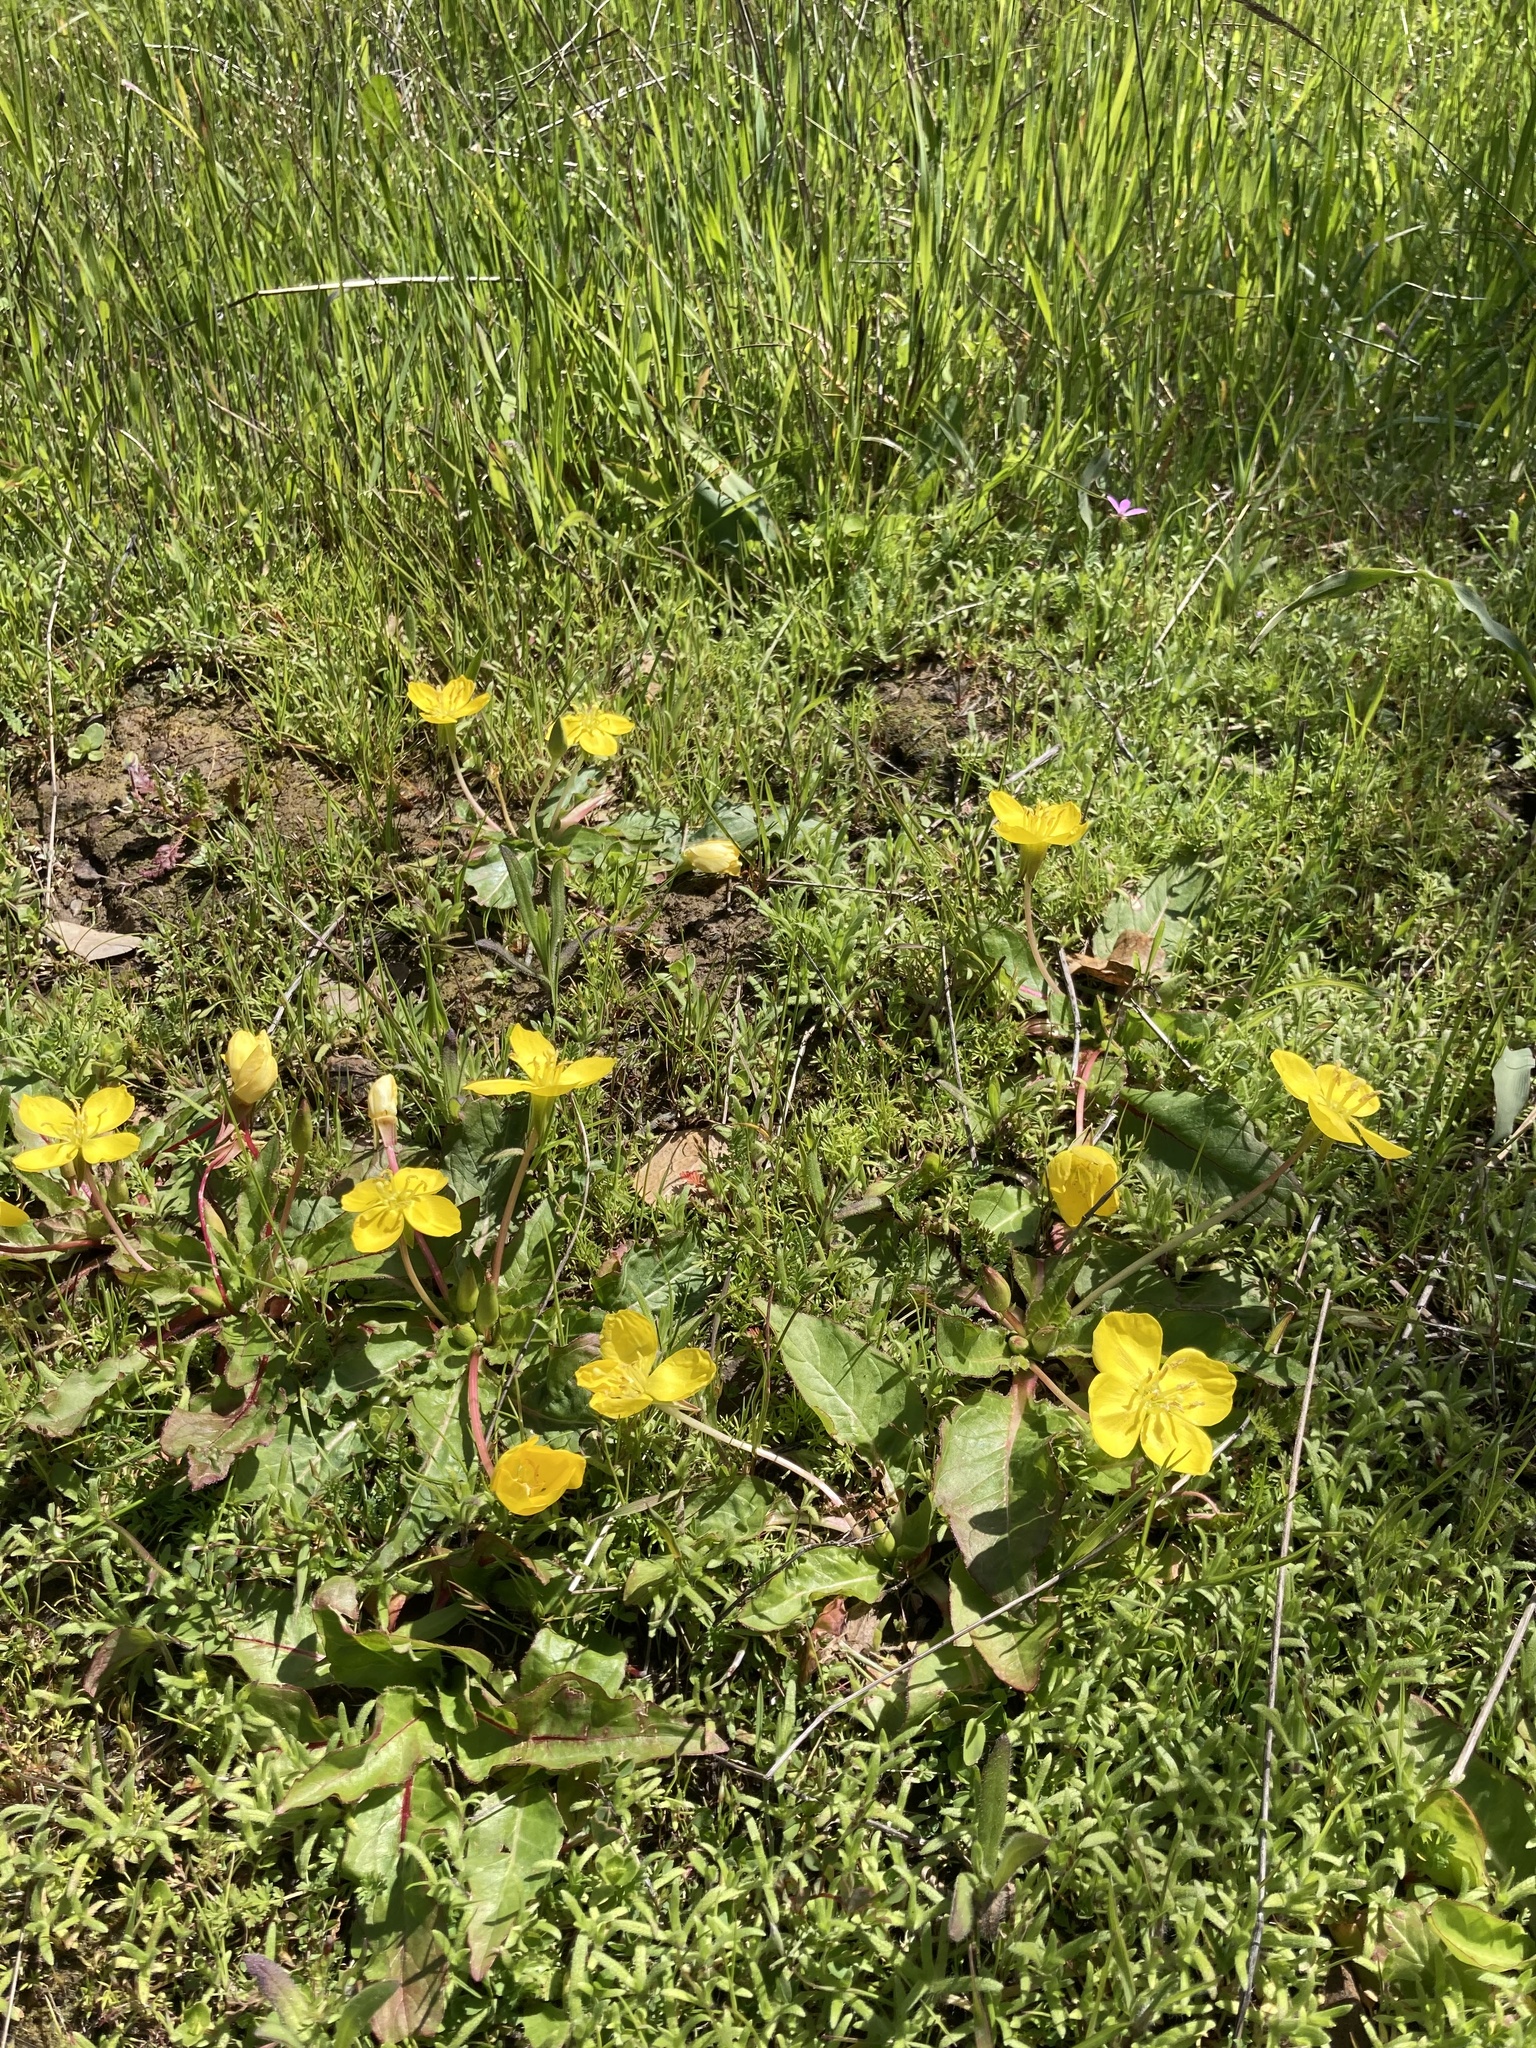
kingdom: Plantae
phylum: Tracheophyta
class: Magnoliopsida
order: Myrtales
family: Onagraceae
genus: Taraxia
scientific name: Taraxia ovata
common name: Goldeneggs
